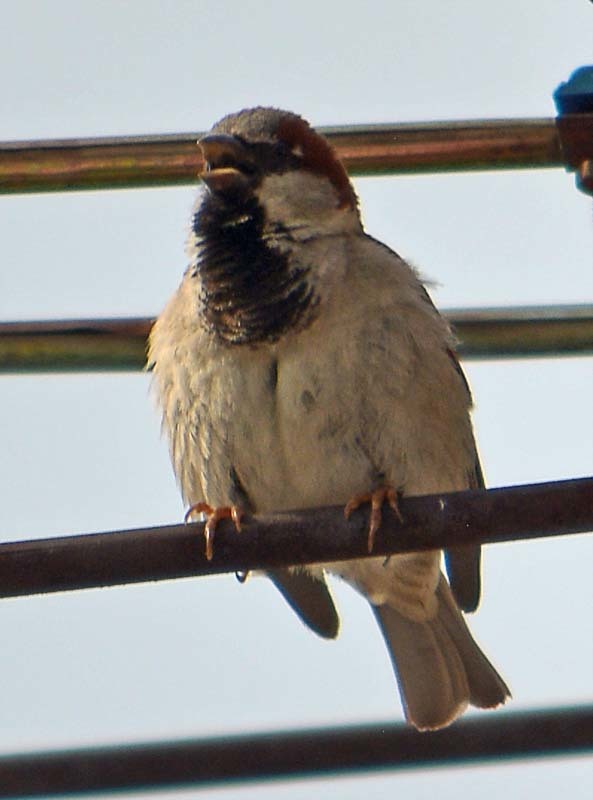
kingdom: Animalia
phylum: Chordata
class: Aves
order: Passeriformes
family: Passeridae
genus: Passer
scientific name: Passer domesticus
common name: House sparrow
